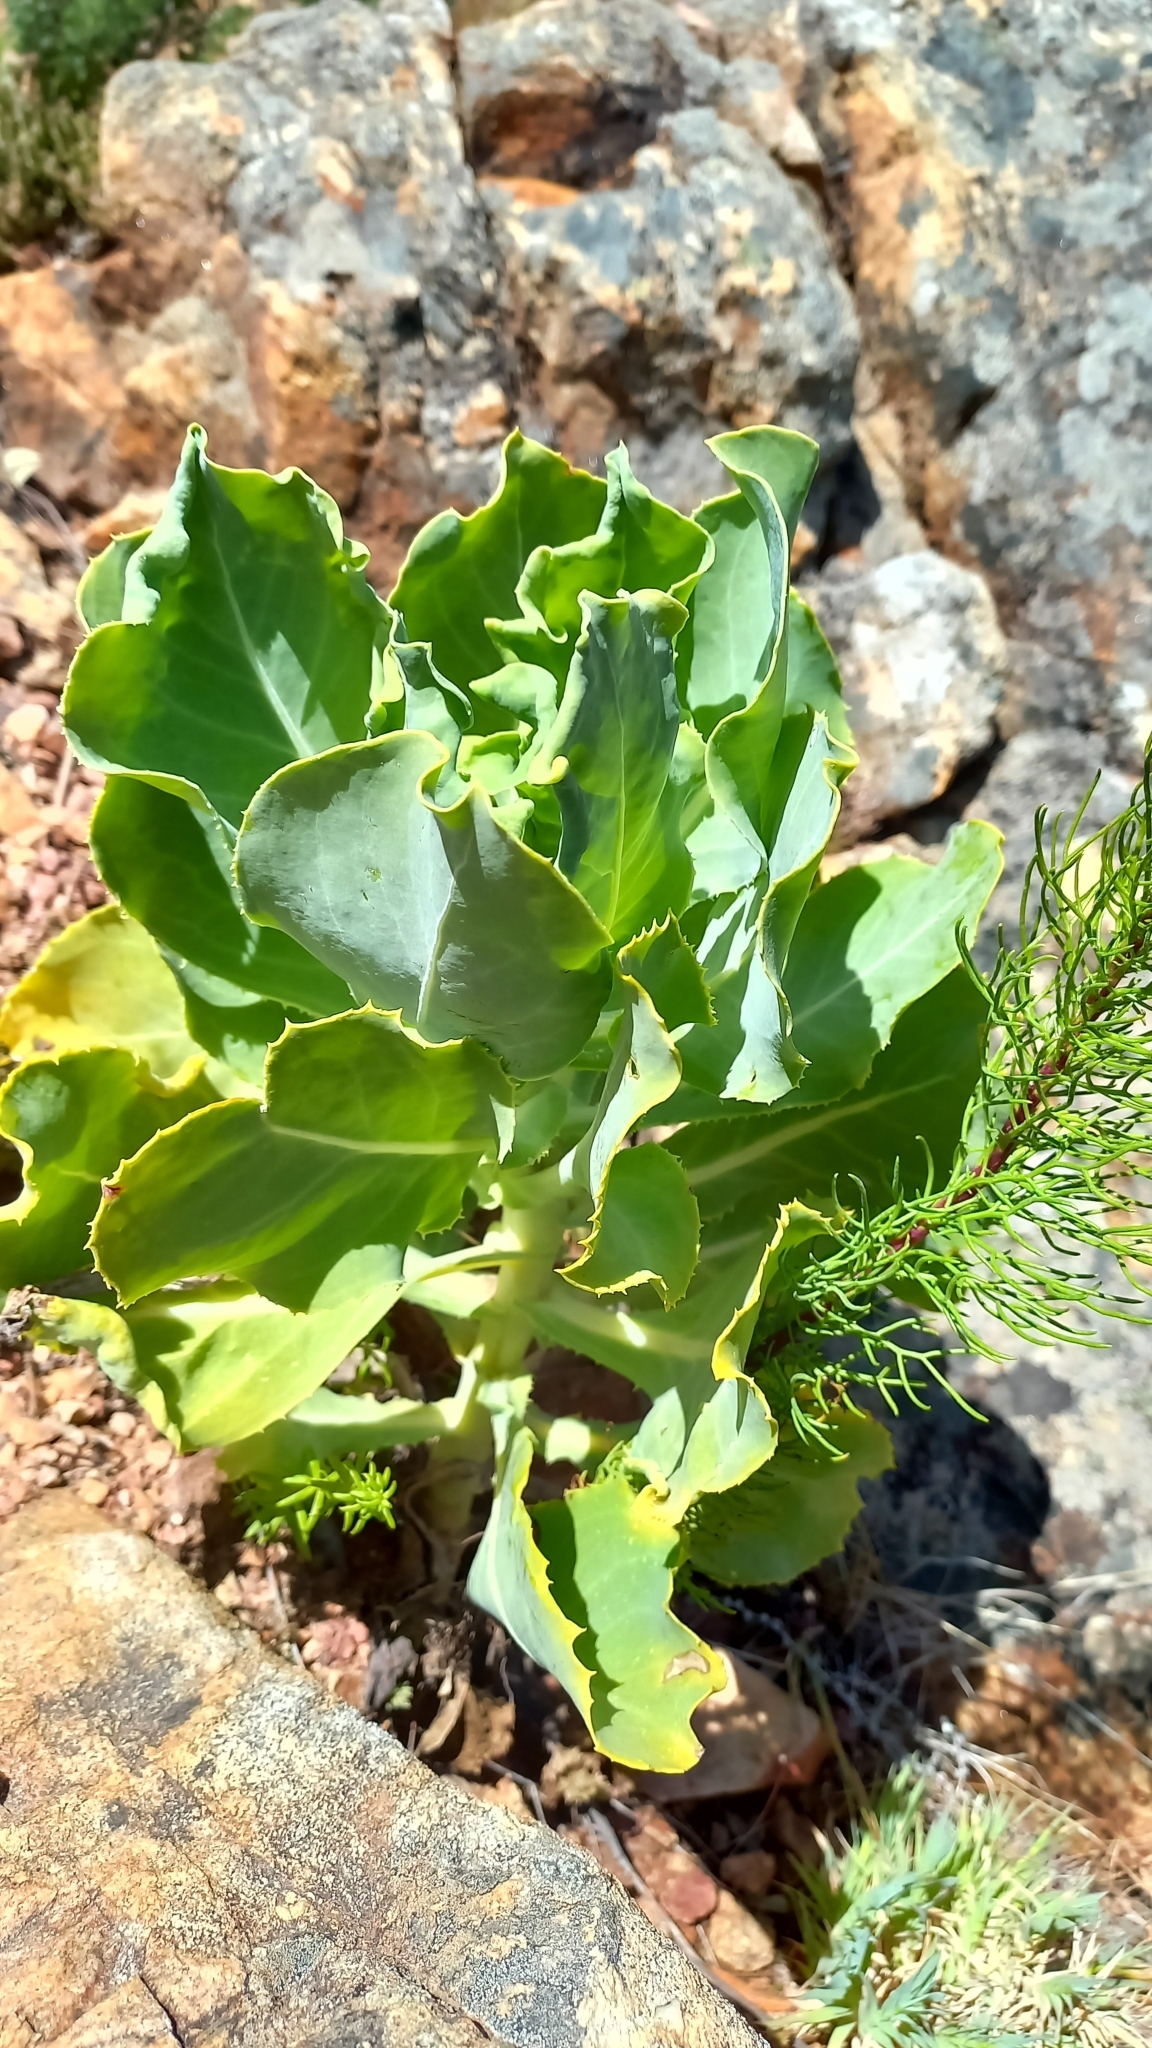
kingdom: Plantae
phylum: Tracheophyta
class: Magnoliopsida
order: Asterales
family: Asteraceae
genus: Othonna
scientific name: Othonna parviflora
